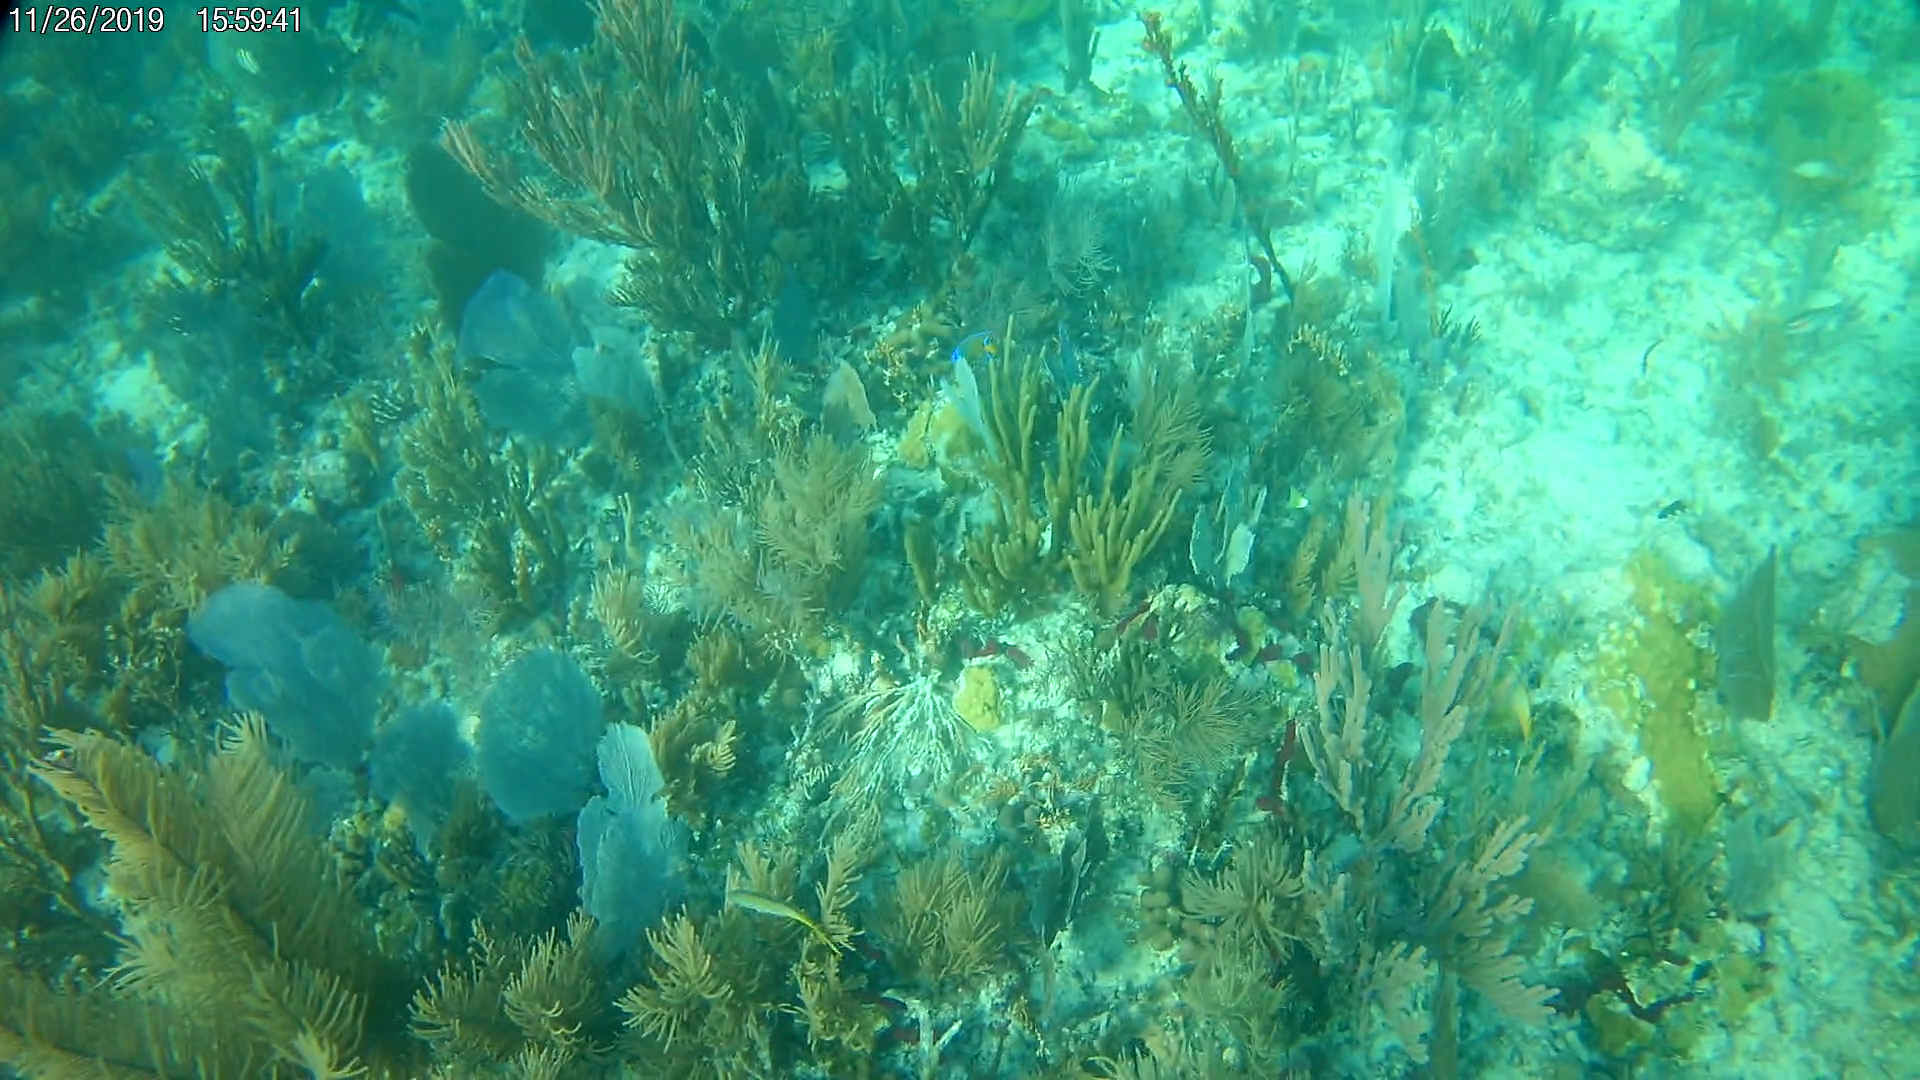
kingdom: Animalia
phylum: Chordata
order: Perciformes
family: Pomacanthidae
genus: Holacanthus
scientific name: Holacanthus ciliaris
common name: Queen angelfish
